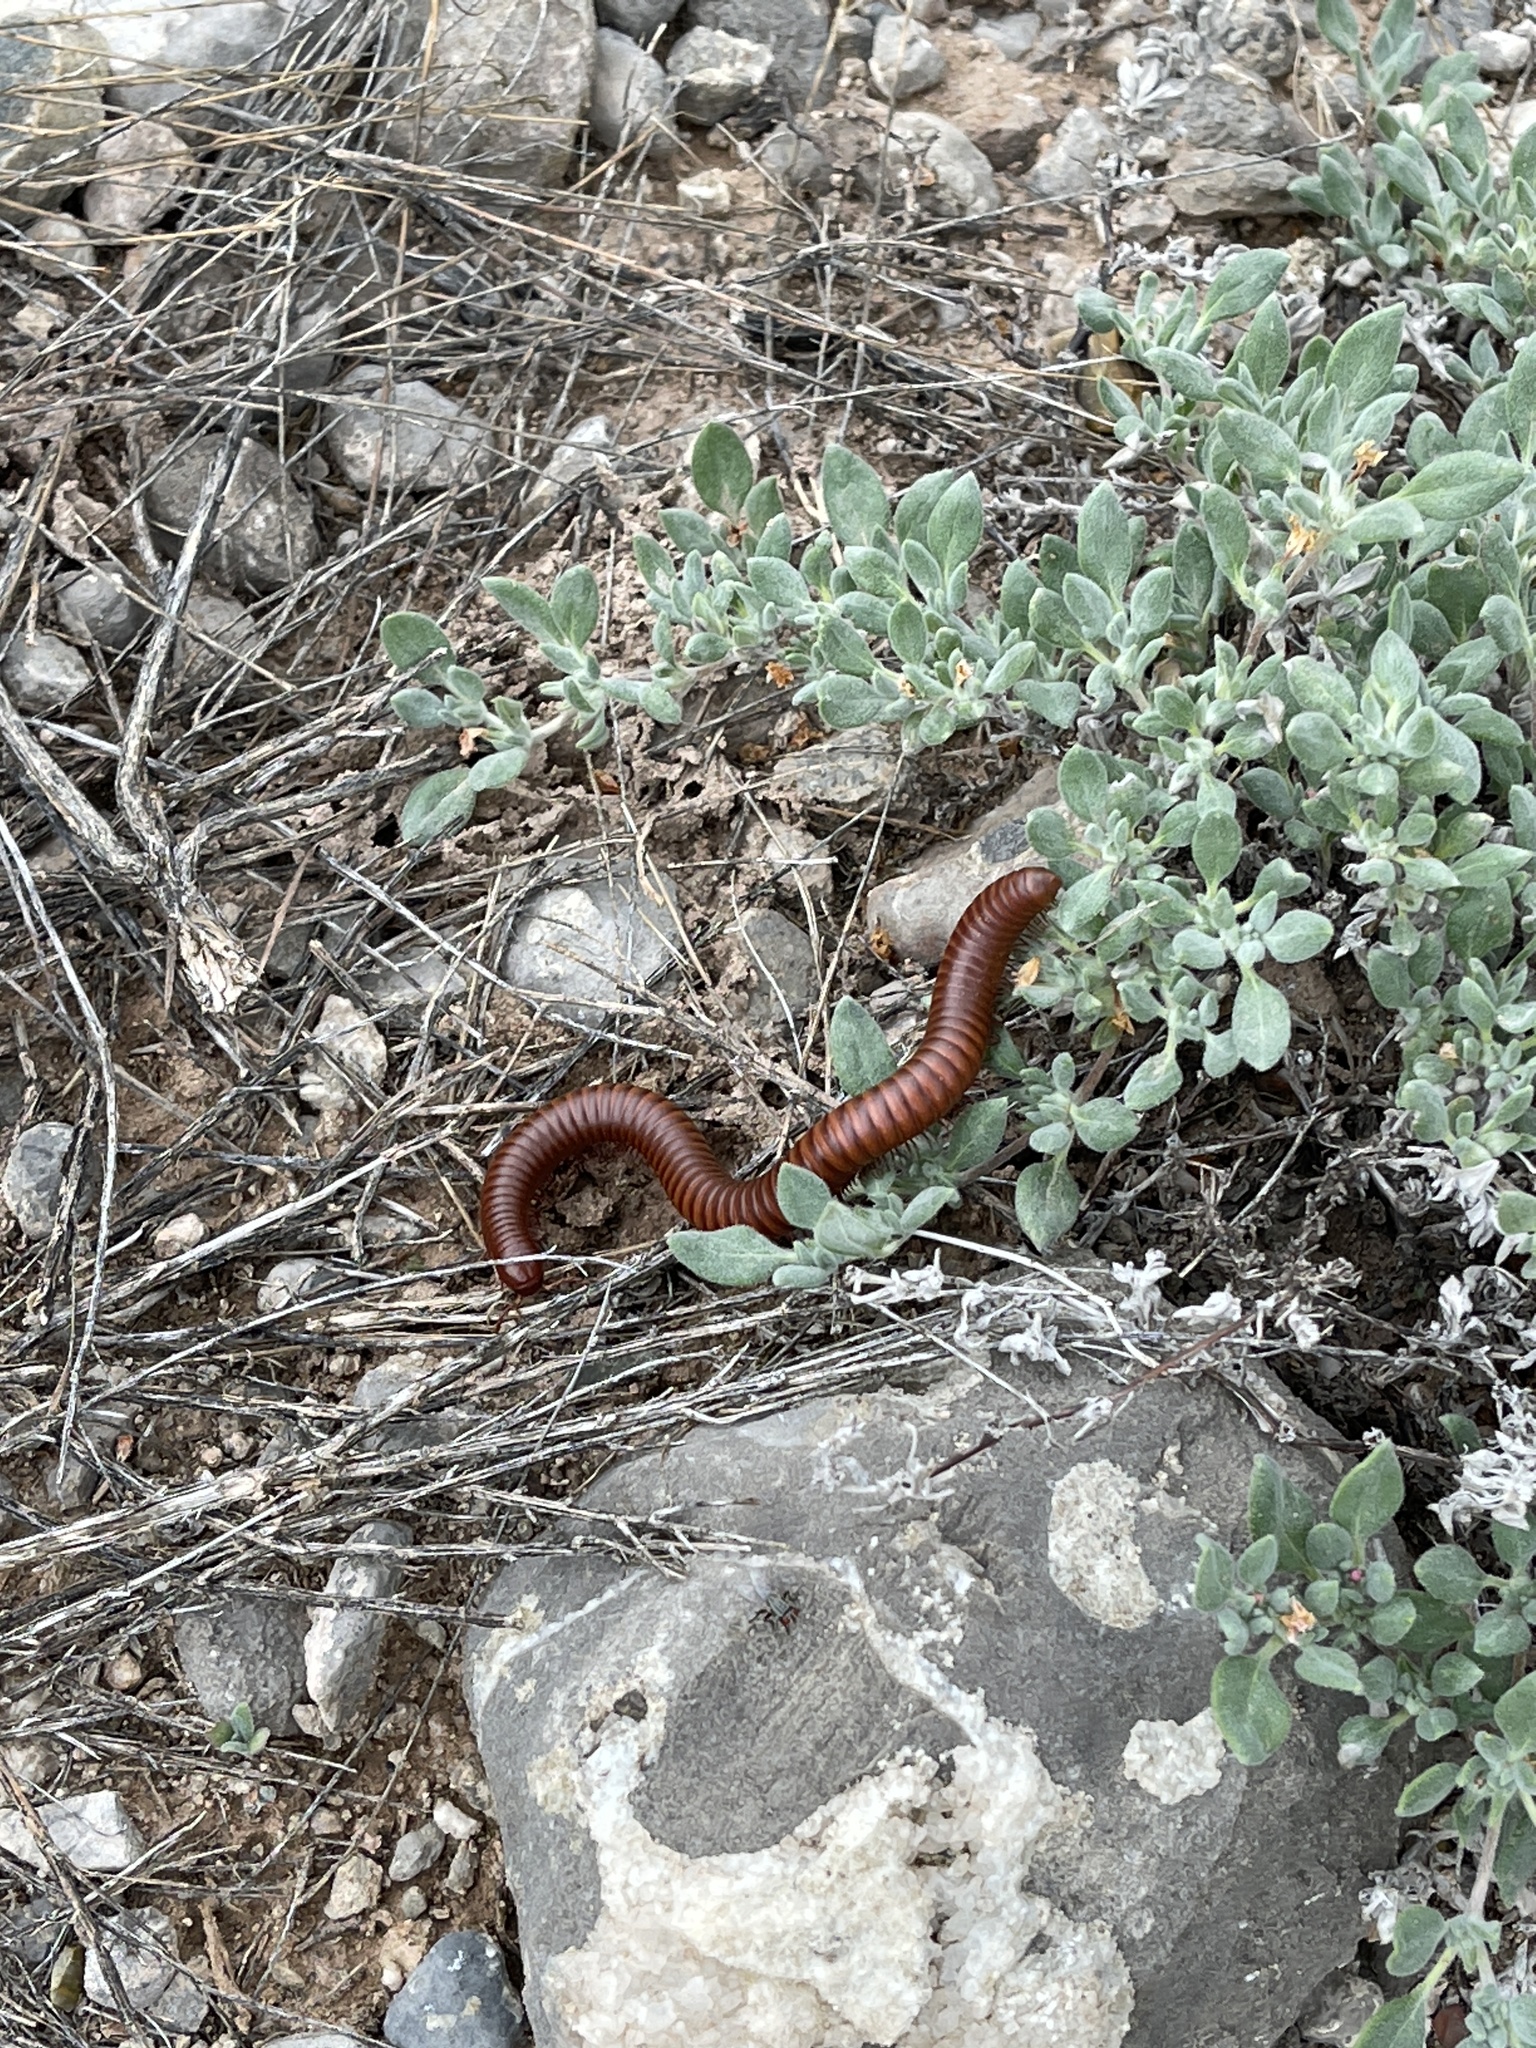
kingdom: Animalia
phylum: Arthropoda
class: Diplopoda
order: Spirostreptida
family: Spirostreptidae
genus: Orthoporus
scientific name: Orthoporus ornatus
